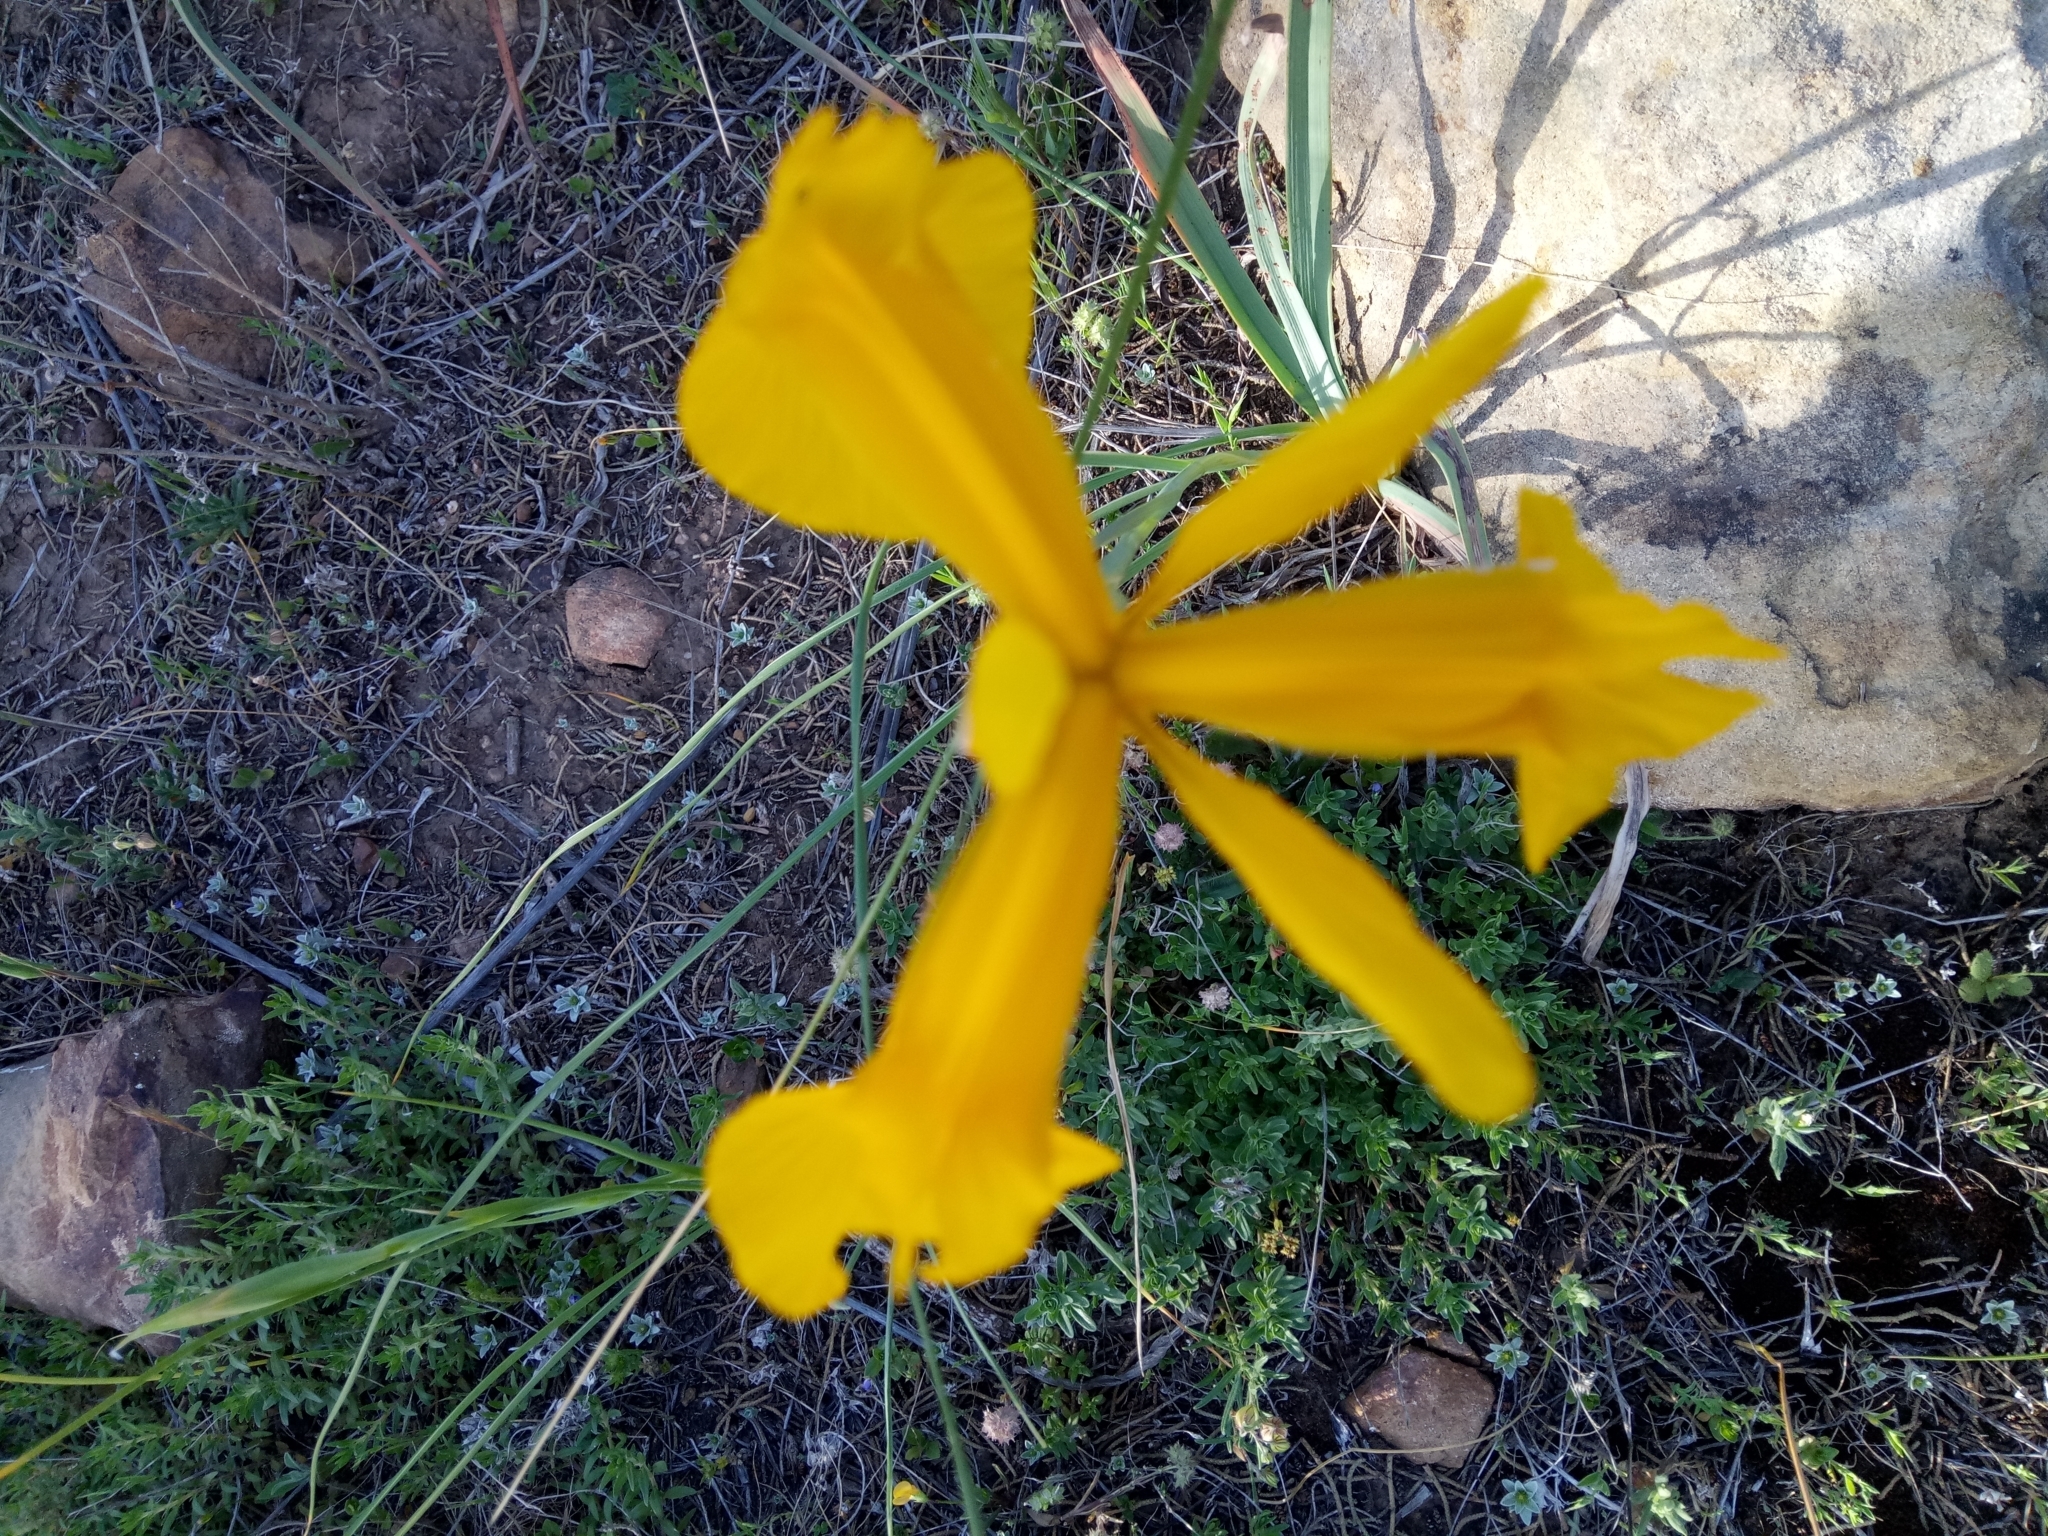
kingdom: Plantae
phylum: Tracheophyta
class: Liliopsida
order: Asparagales
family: Iridaceae
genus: Iris
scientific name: Iris juncea
